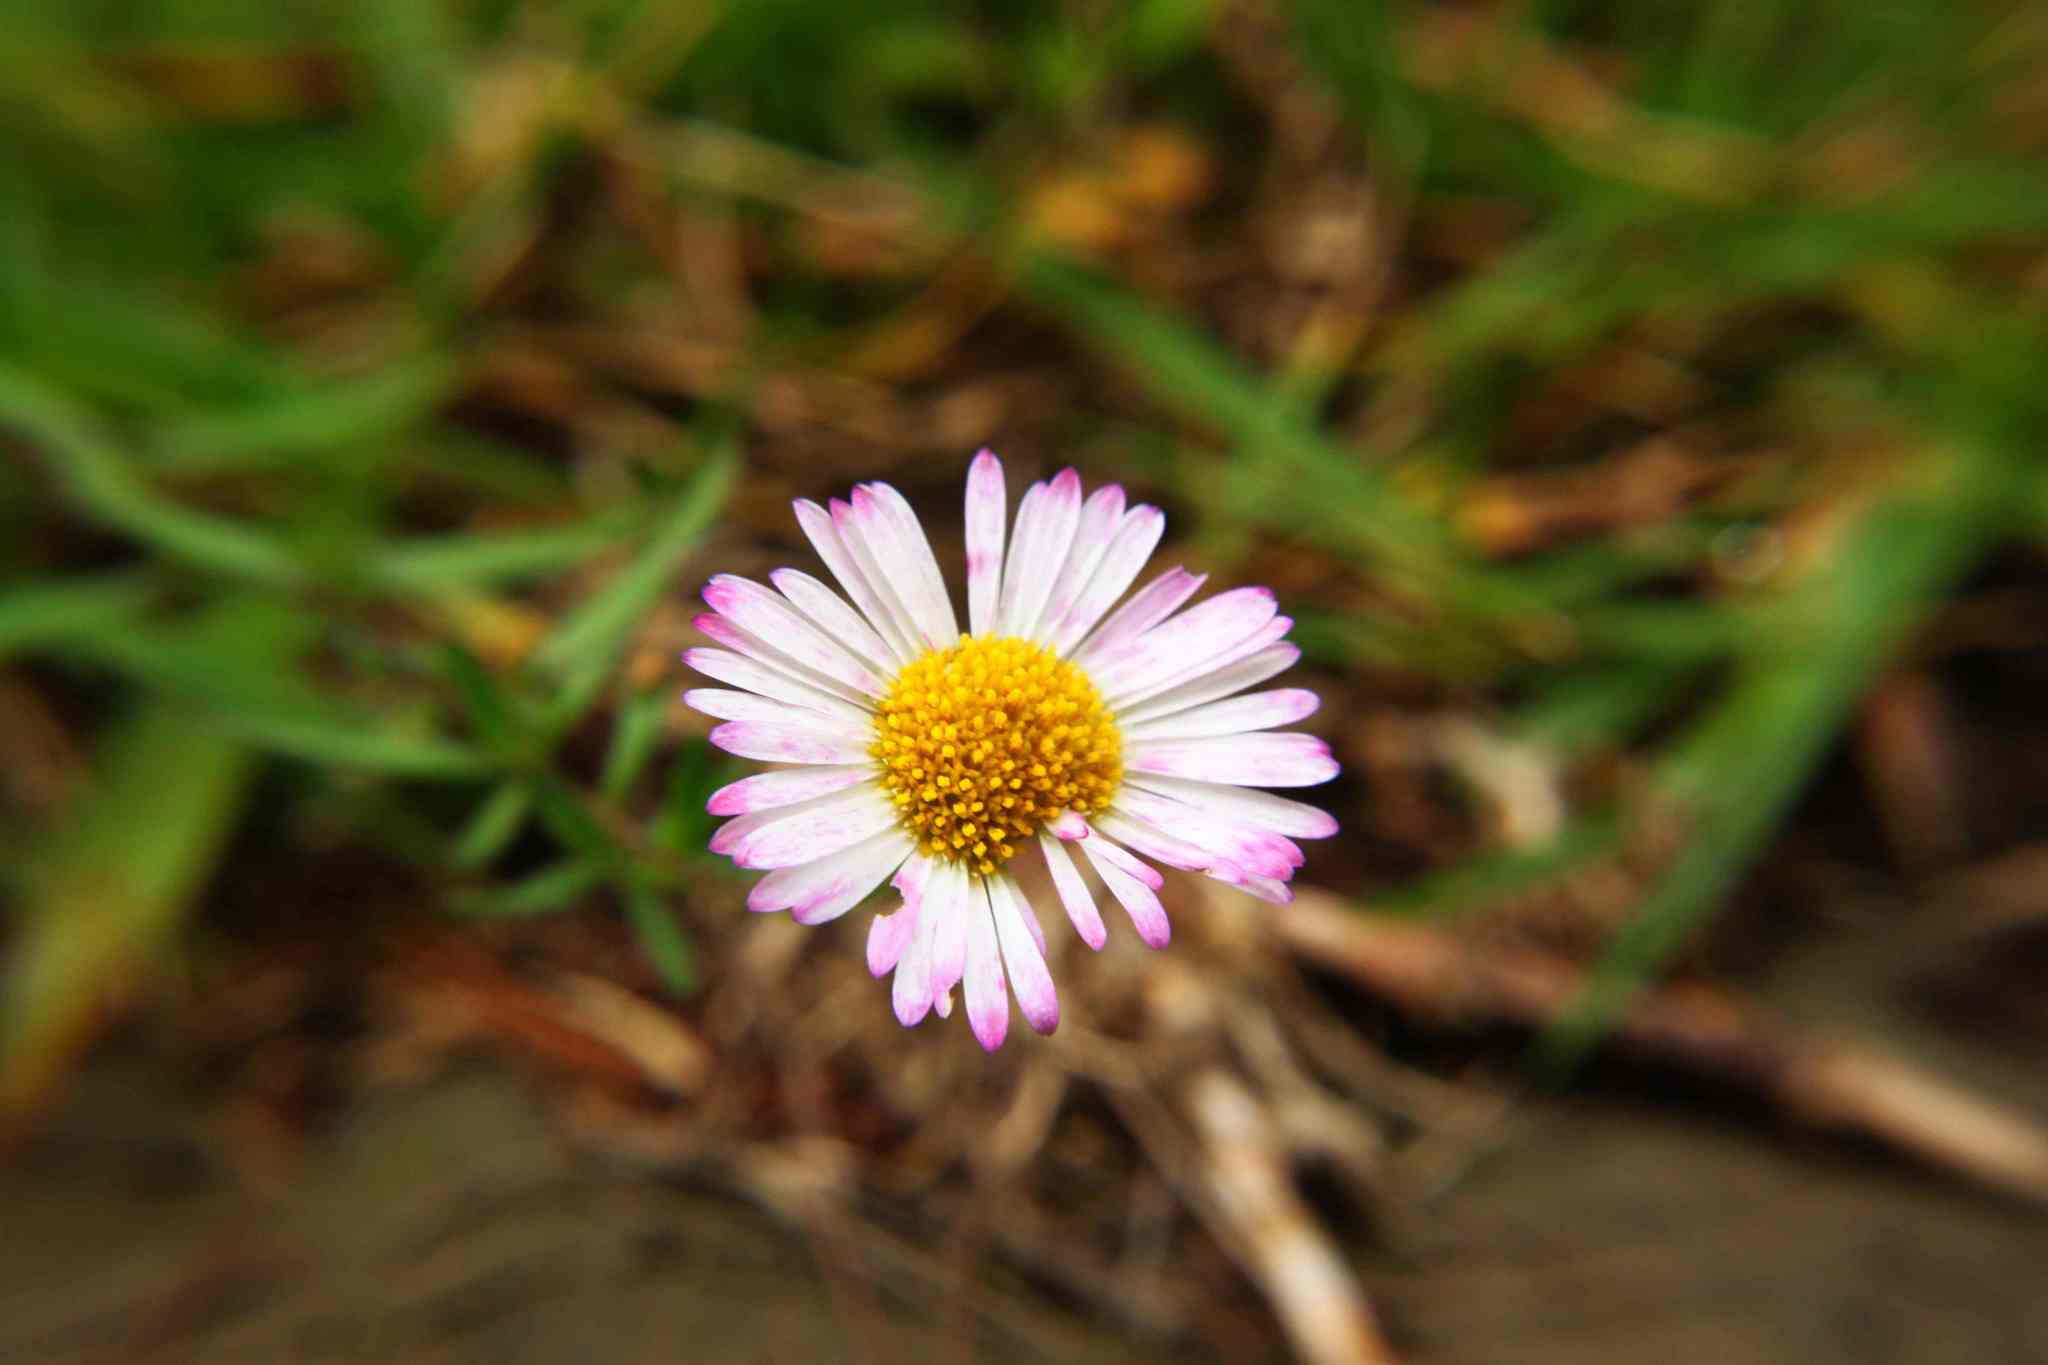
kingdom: Plantae
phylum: Tracheophyta
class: Magnoliopsida
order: Asterales
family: Asteraceae
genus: Erigeron
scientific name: Erigeron karvinskianus
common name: Mexican fleabane
